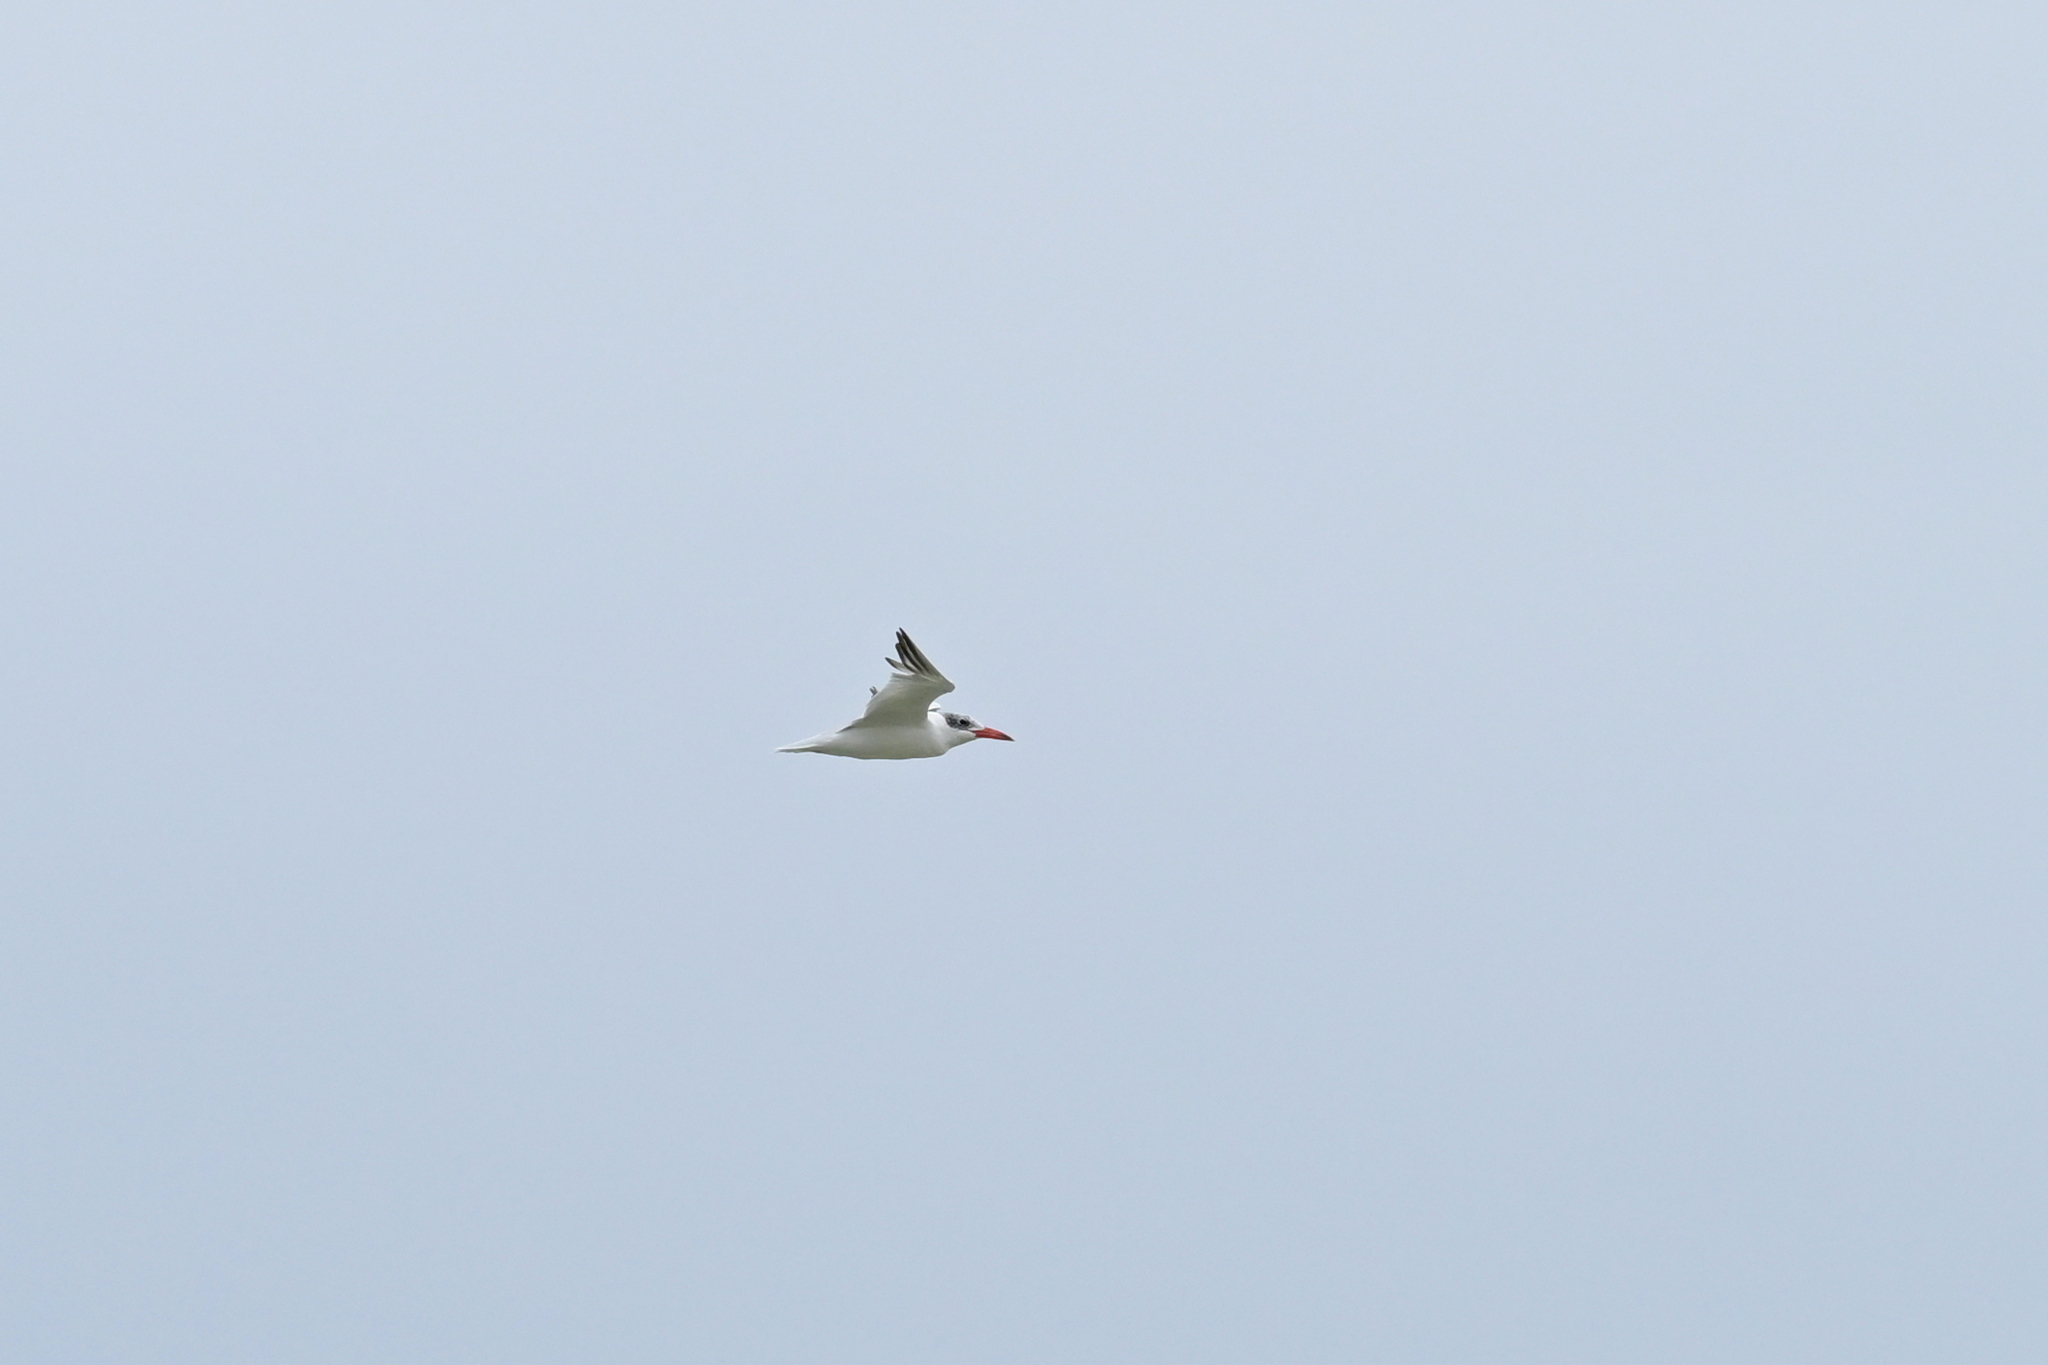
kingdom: Animalia
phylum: Chordata
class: Aves
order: Charadriiformes
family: Laridae
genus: Hydroprogne
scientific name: Hydroprogne caspia
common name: Caspian tern
